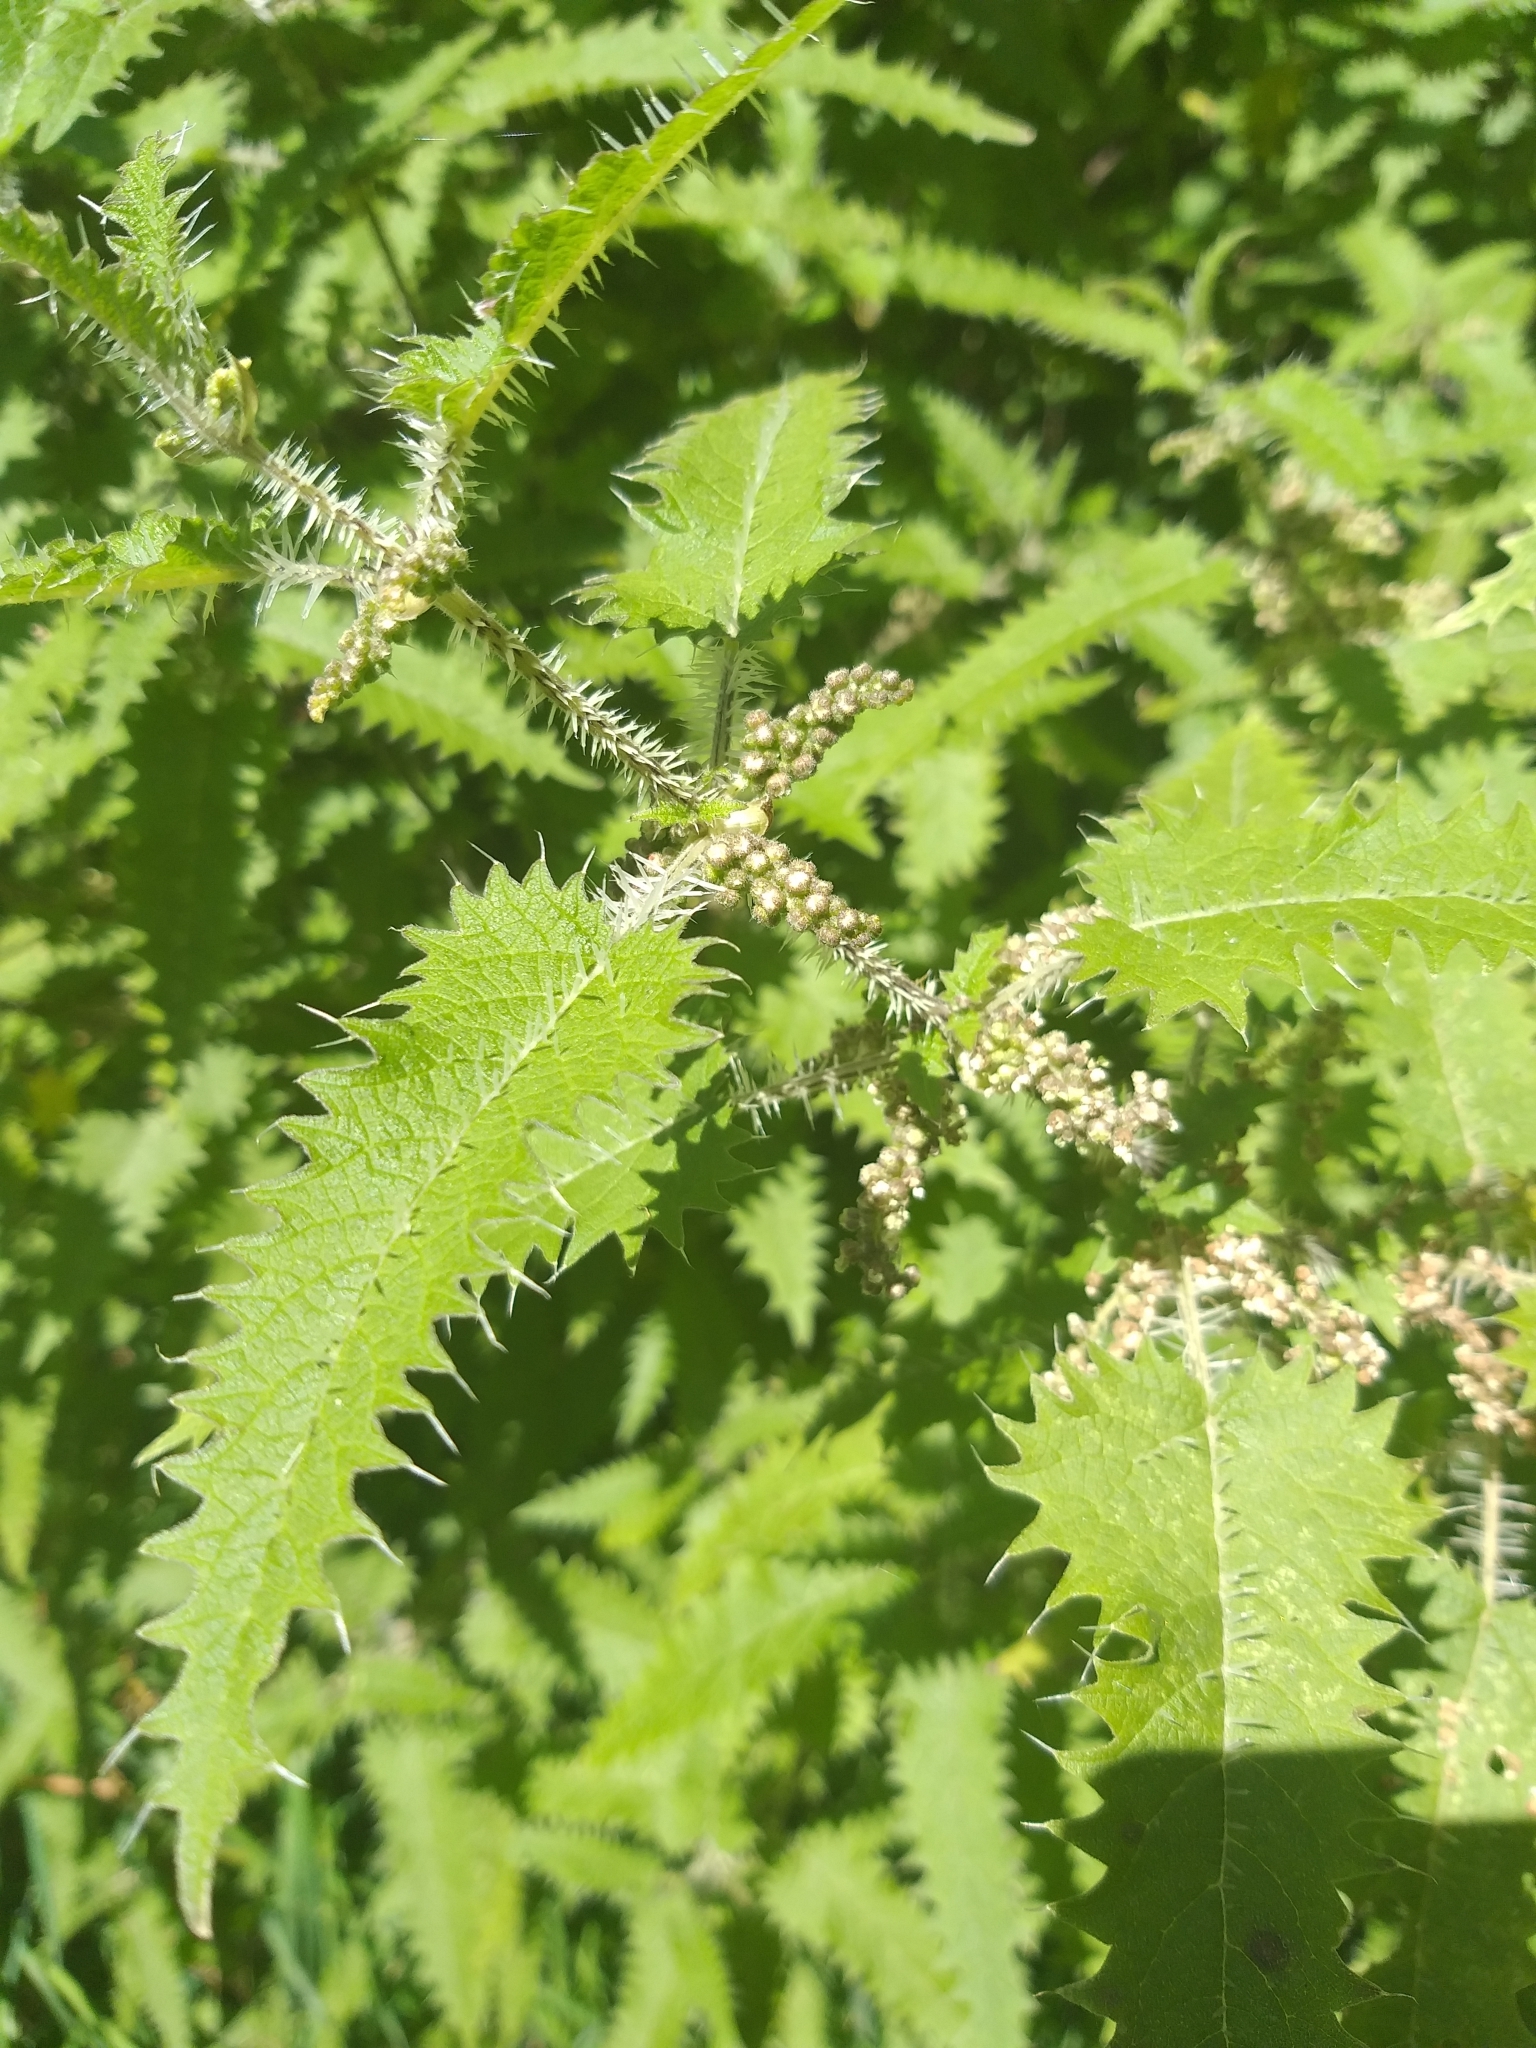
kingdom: Plantae
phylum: Tracheophyta
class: Magnoliopsida
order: Rosales
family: Urticaceae
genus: Urtica
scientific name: Urtica ferox
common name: Tree nettle
